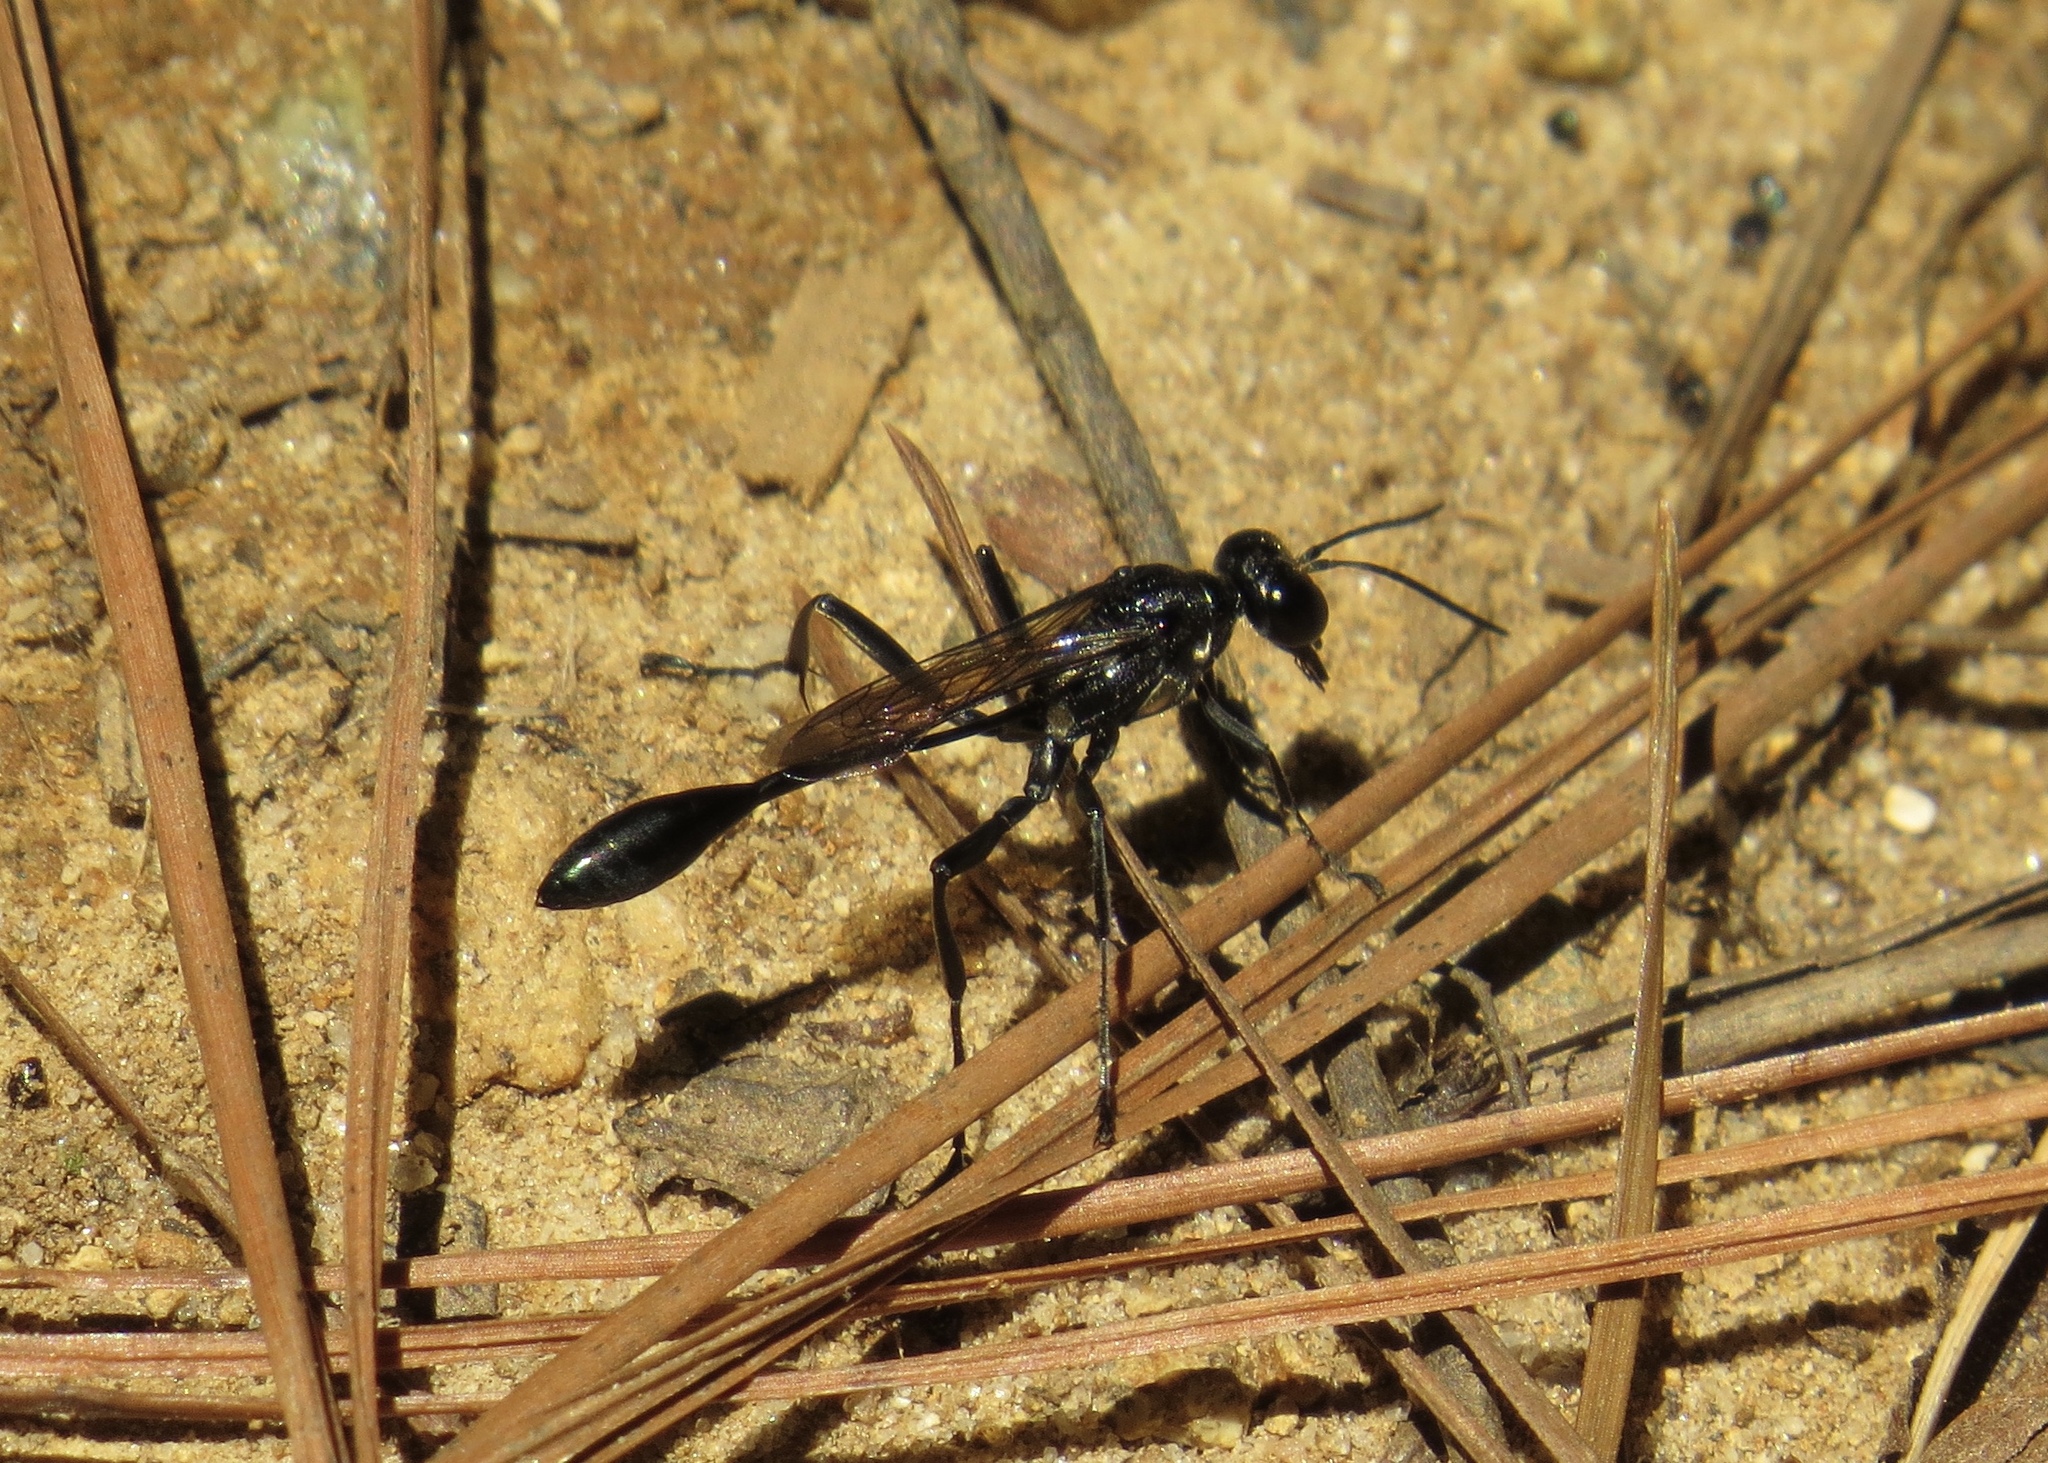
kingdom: Animalia
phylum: Arthropoda
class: Insecta
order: Hymenoptera
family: Sphecidae
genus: Eremnophila
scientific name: Eremnophila aureonotata
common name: Gold-marked thread-waisted wasp
